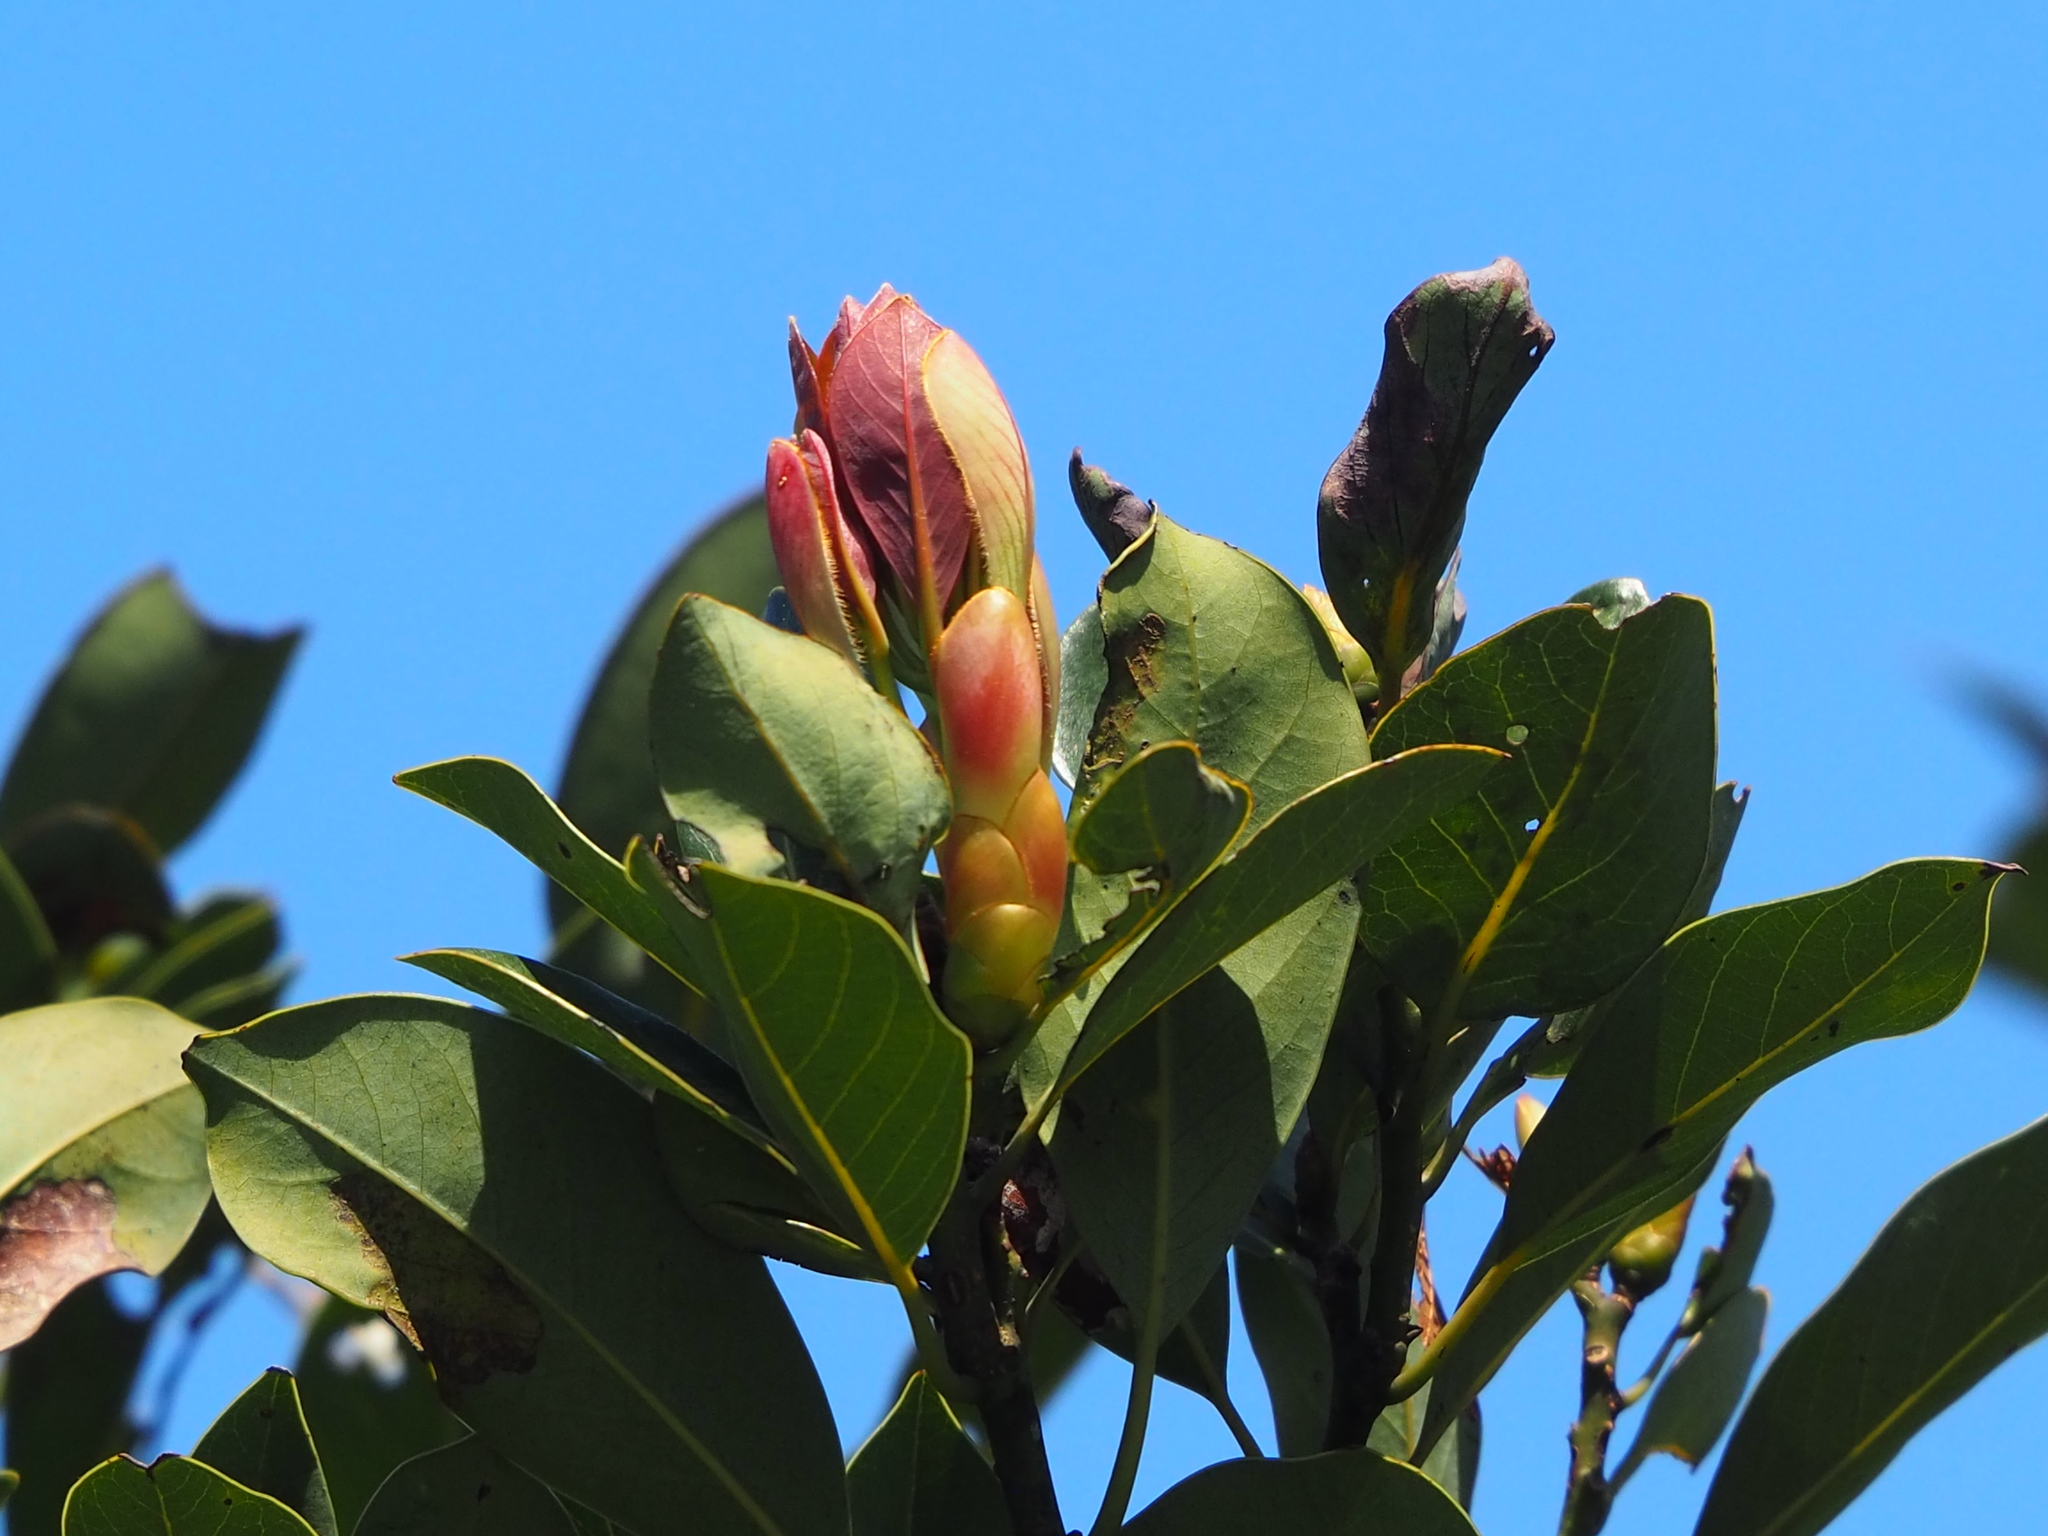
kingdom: Plantae
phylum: Tracheophyta
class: Magnoliopsida
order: Laurales
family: Lauraceae
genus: Machilus
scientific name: Machilus thunbergii
